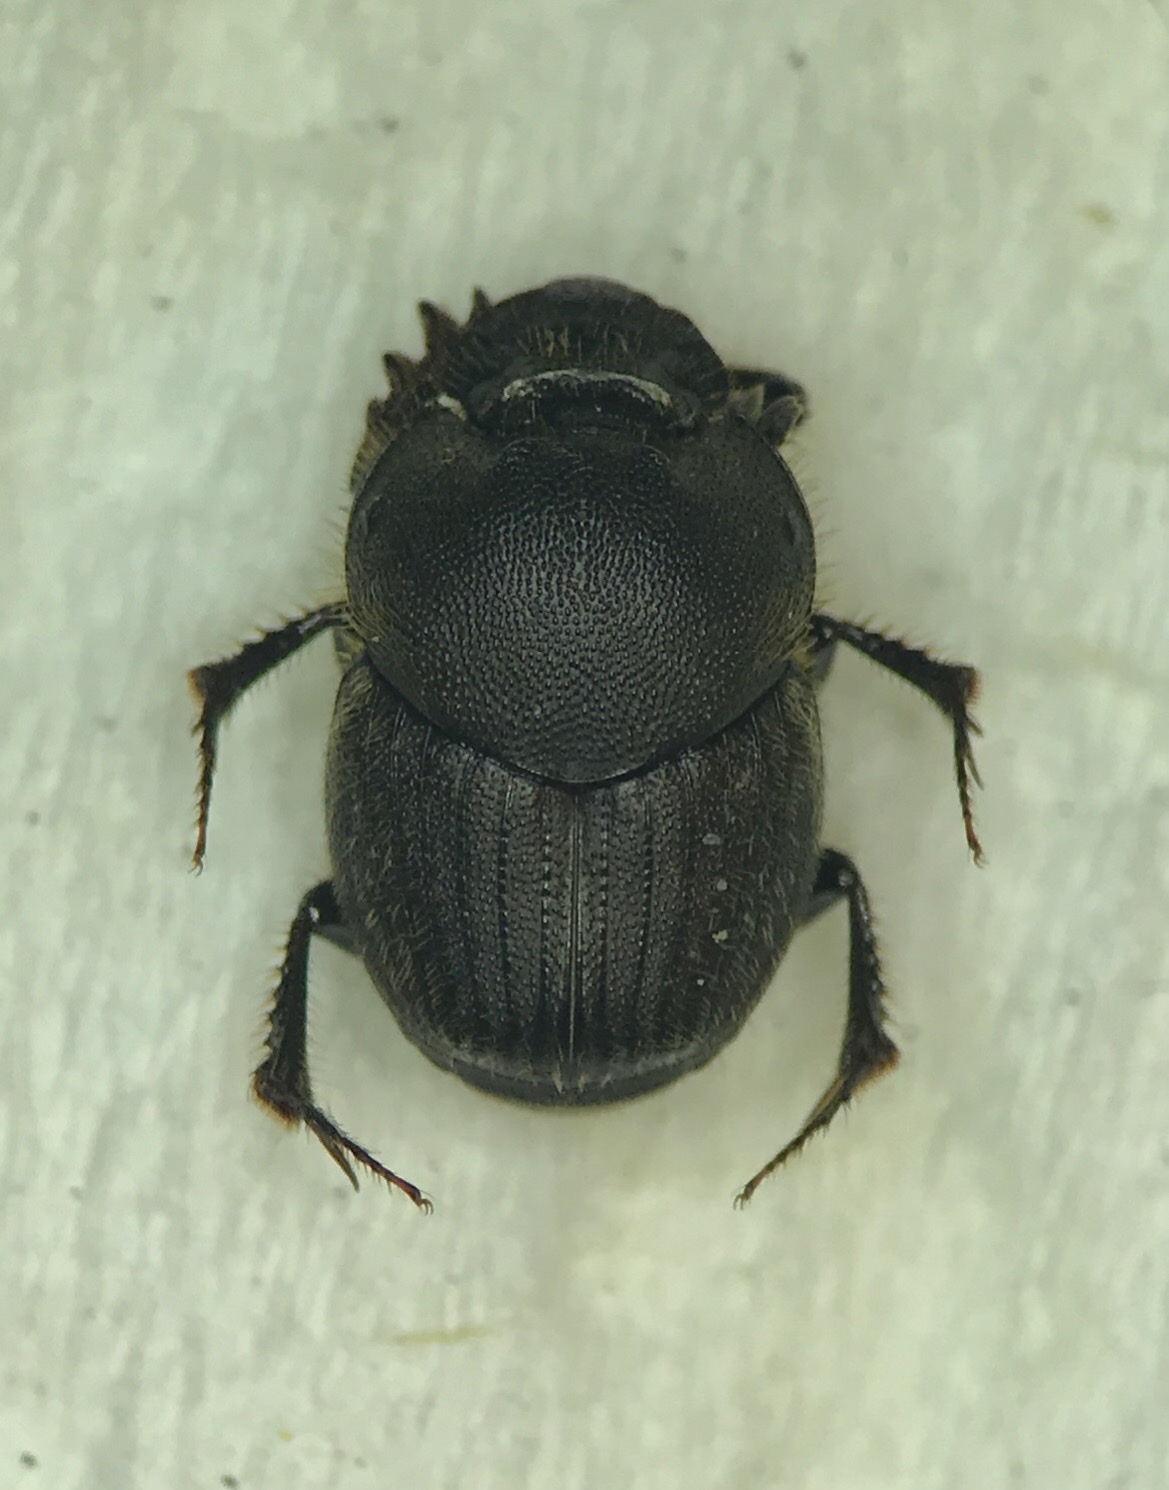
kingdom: Animalia
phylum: Arthropoda
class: Insecta
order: Coleoptera
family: Scarabaeidae
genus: Onthophagus
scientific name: Onthophagus hecate
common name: Scooped scarab
